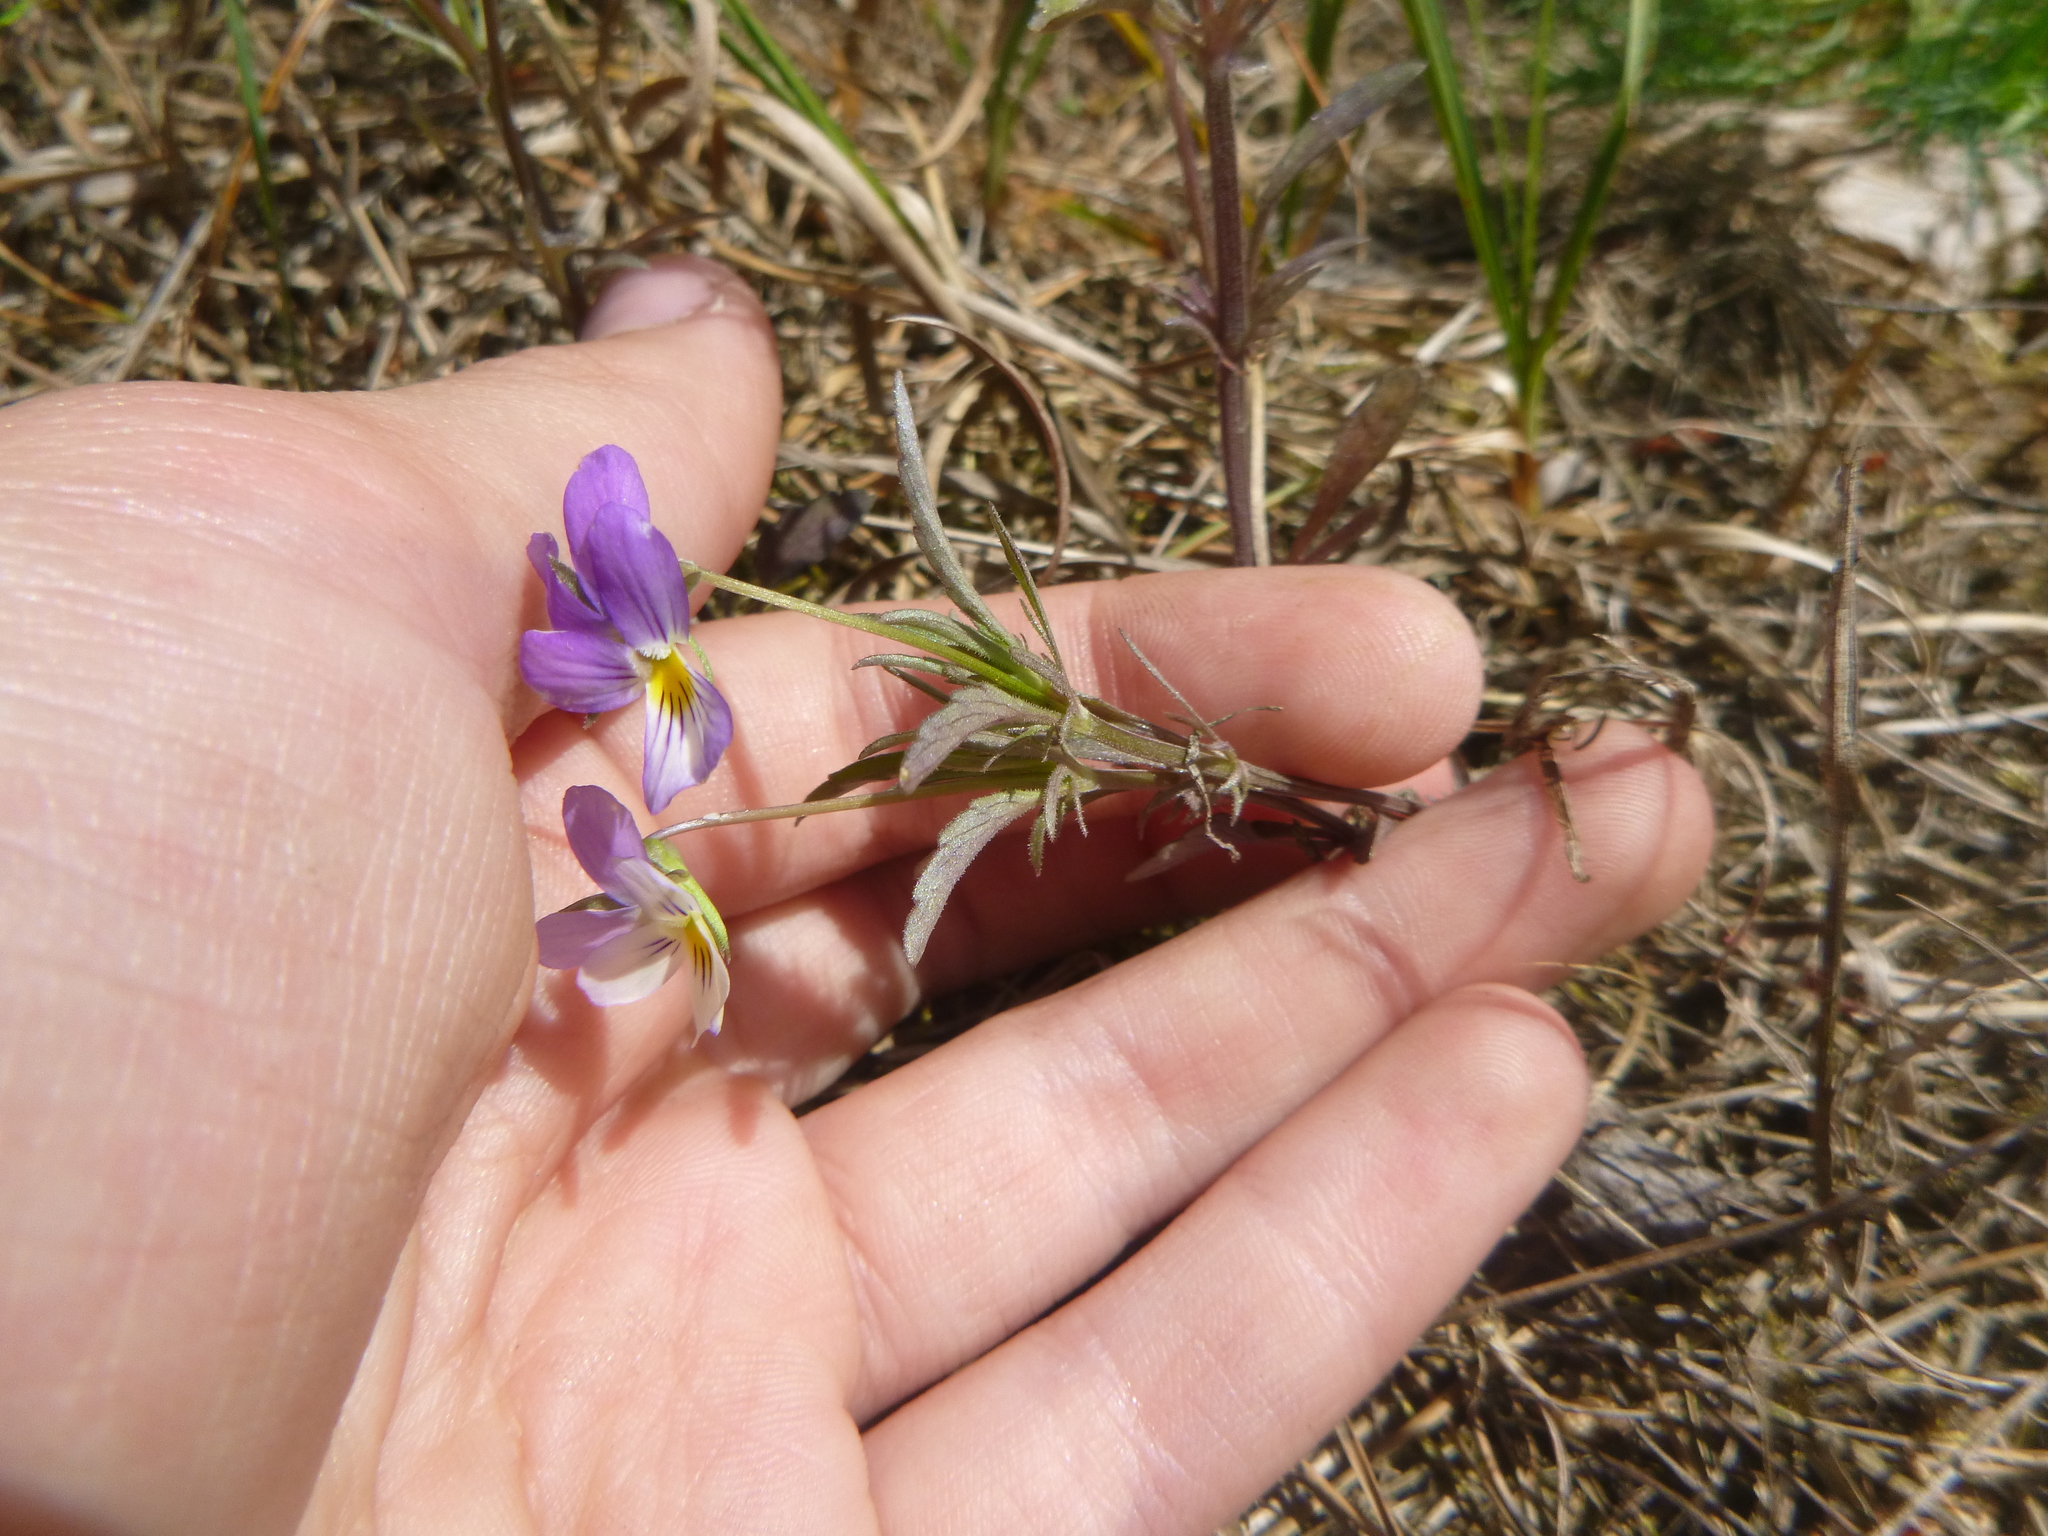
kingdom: Plantae
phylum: Tracheophyta
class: Magnoliopsida
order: Malpighiales
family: Violaceae
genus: Viola
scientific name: Viola tricolor
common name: Pansy
